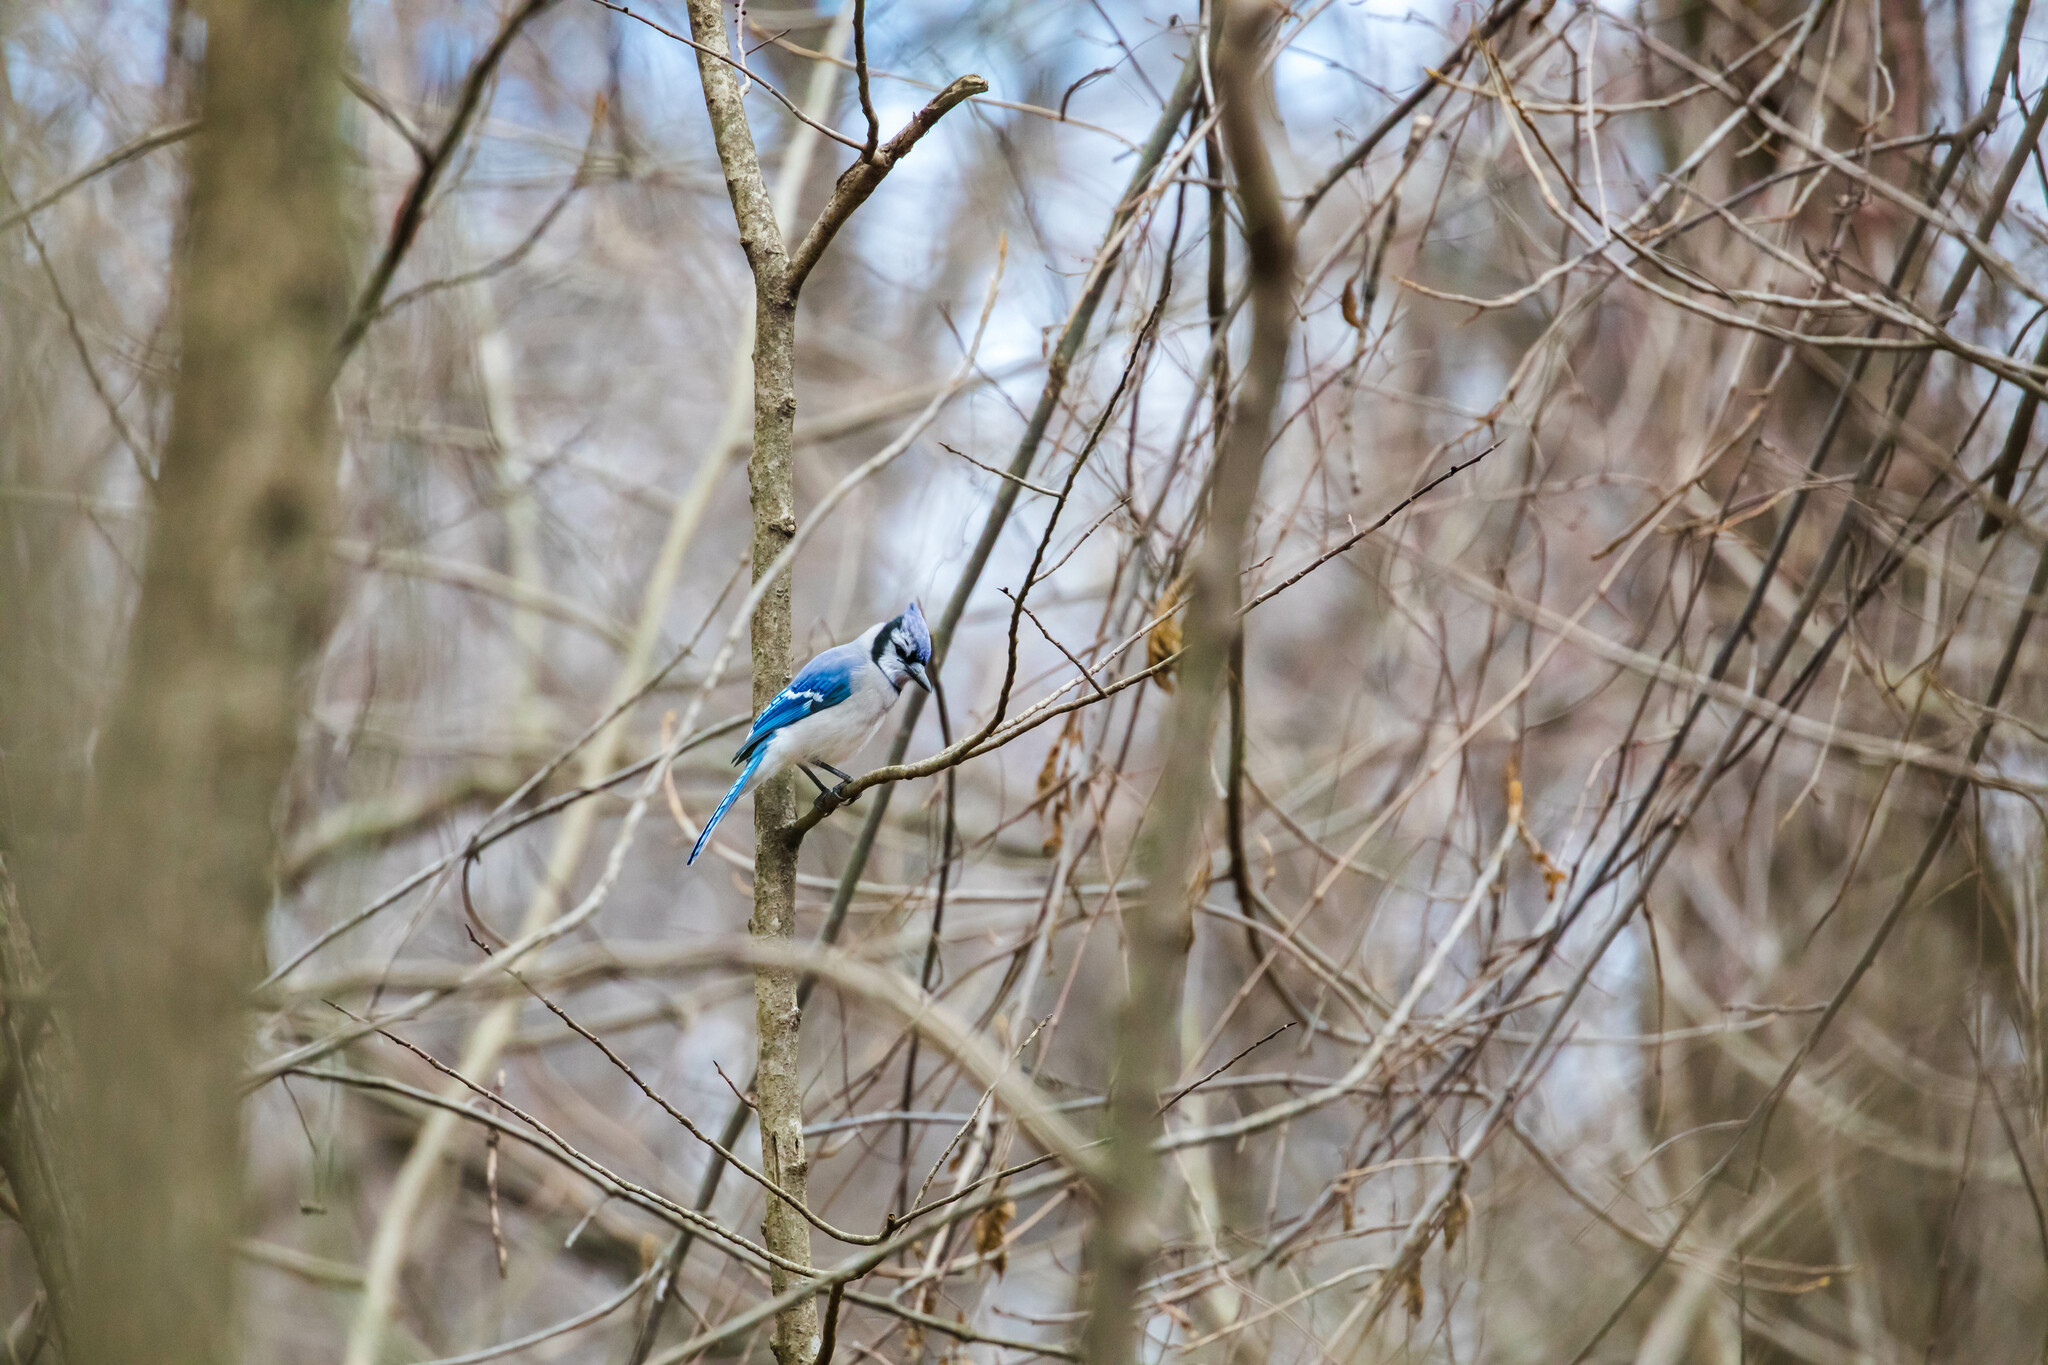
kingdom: Animalia
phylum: Chordata
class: Aves
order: Passeriformes
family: Corvidae
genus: Cyanocitta
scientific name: Cyanocitta cristata
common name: Blue jay
